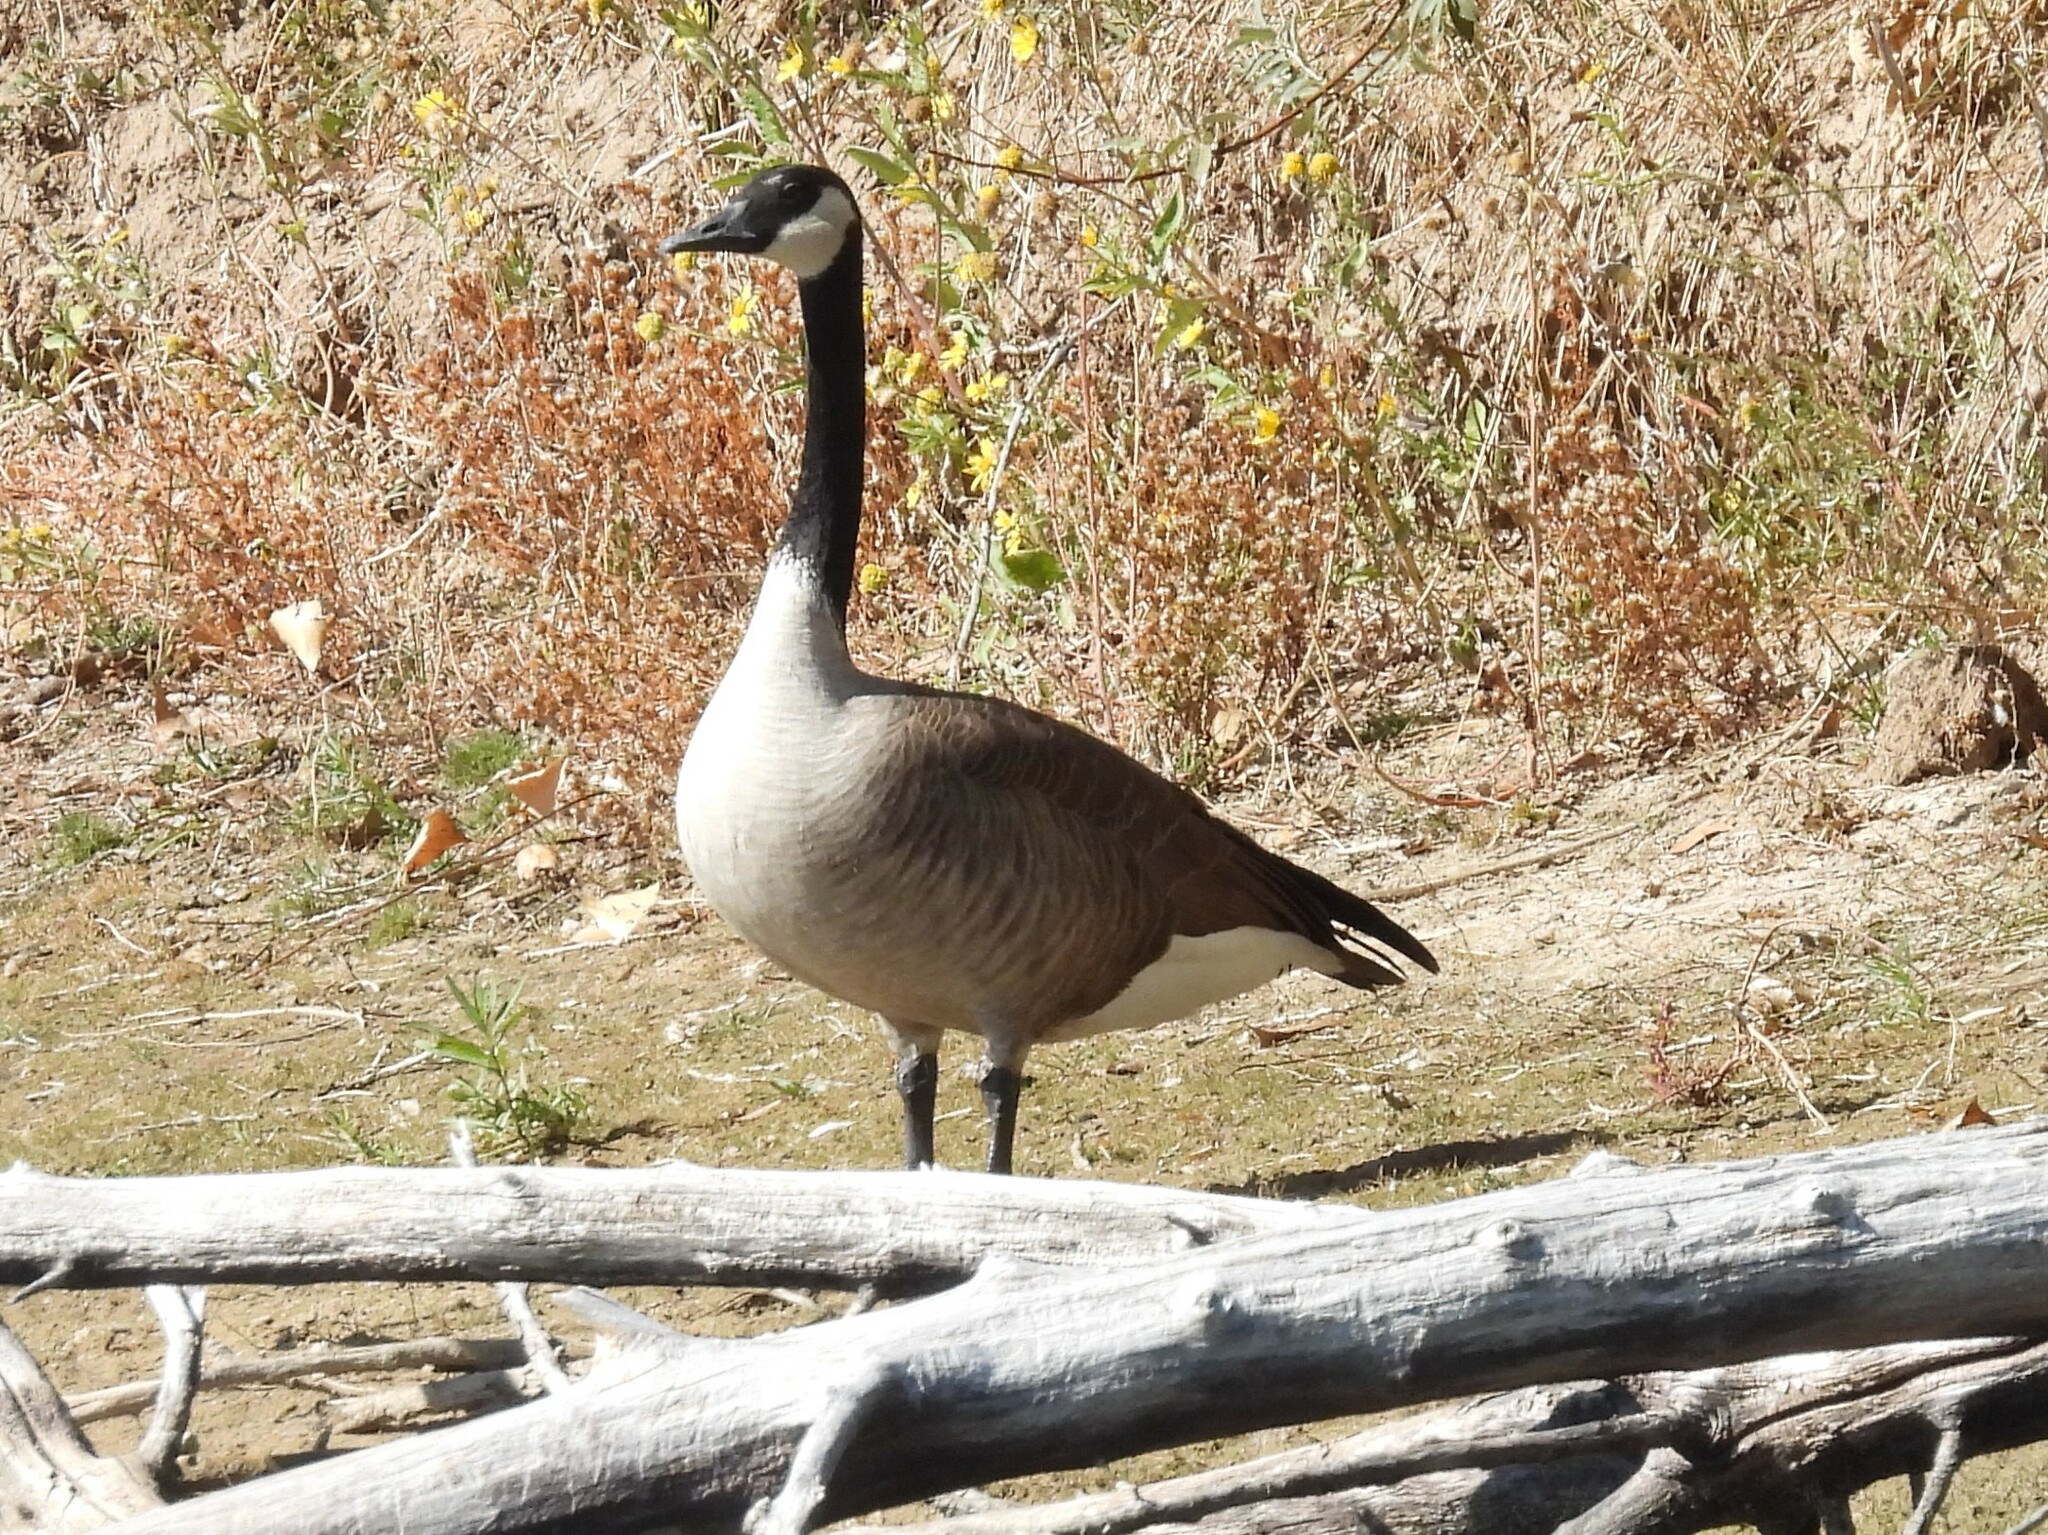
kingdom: Animalia
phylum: Chordata
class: Aves
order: Anseriformes
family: Anatidae
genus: Branta
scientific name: Branta canadensis
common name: Canada goose
